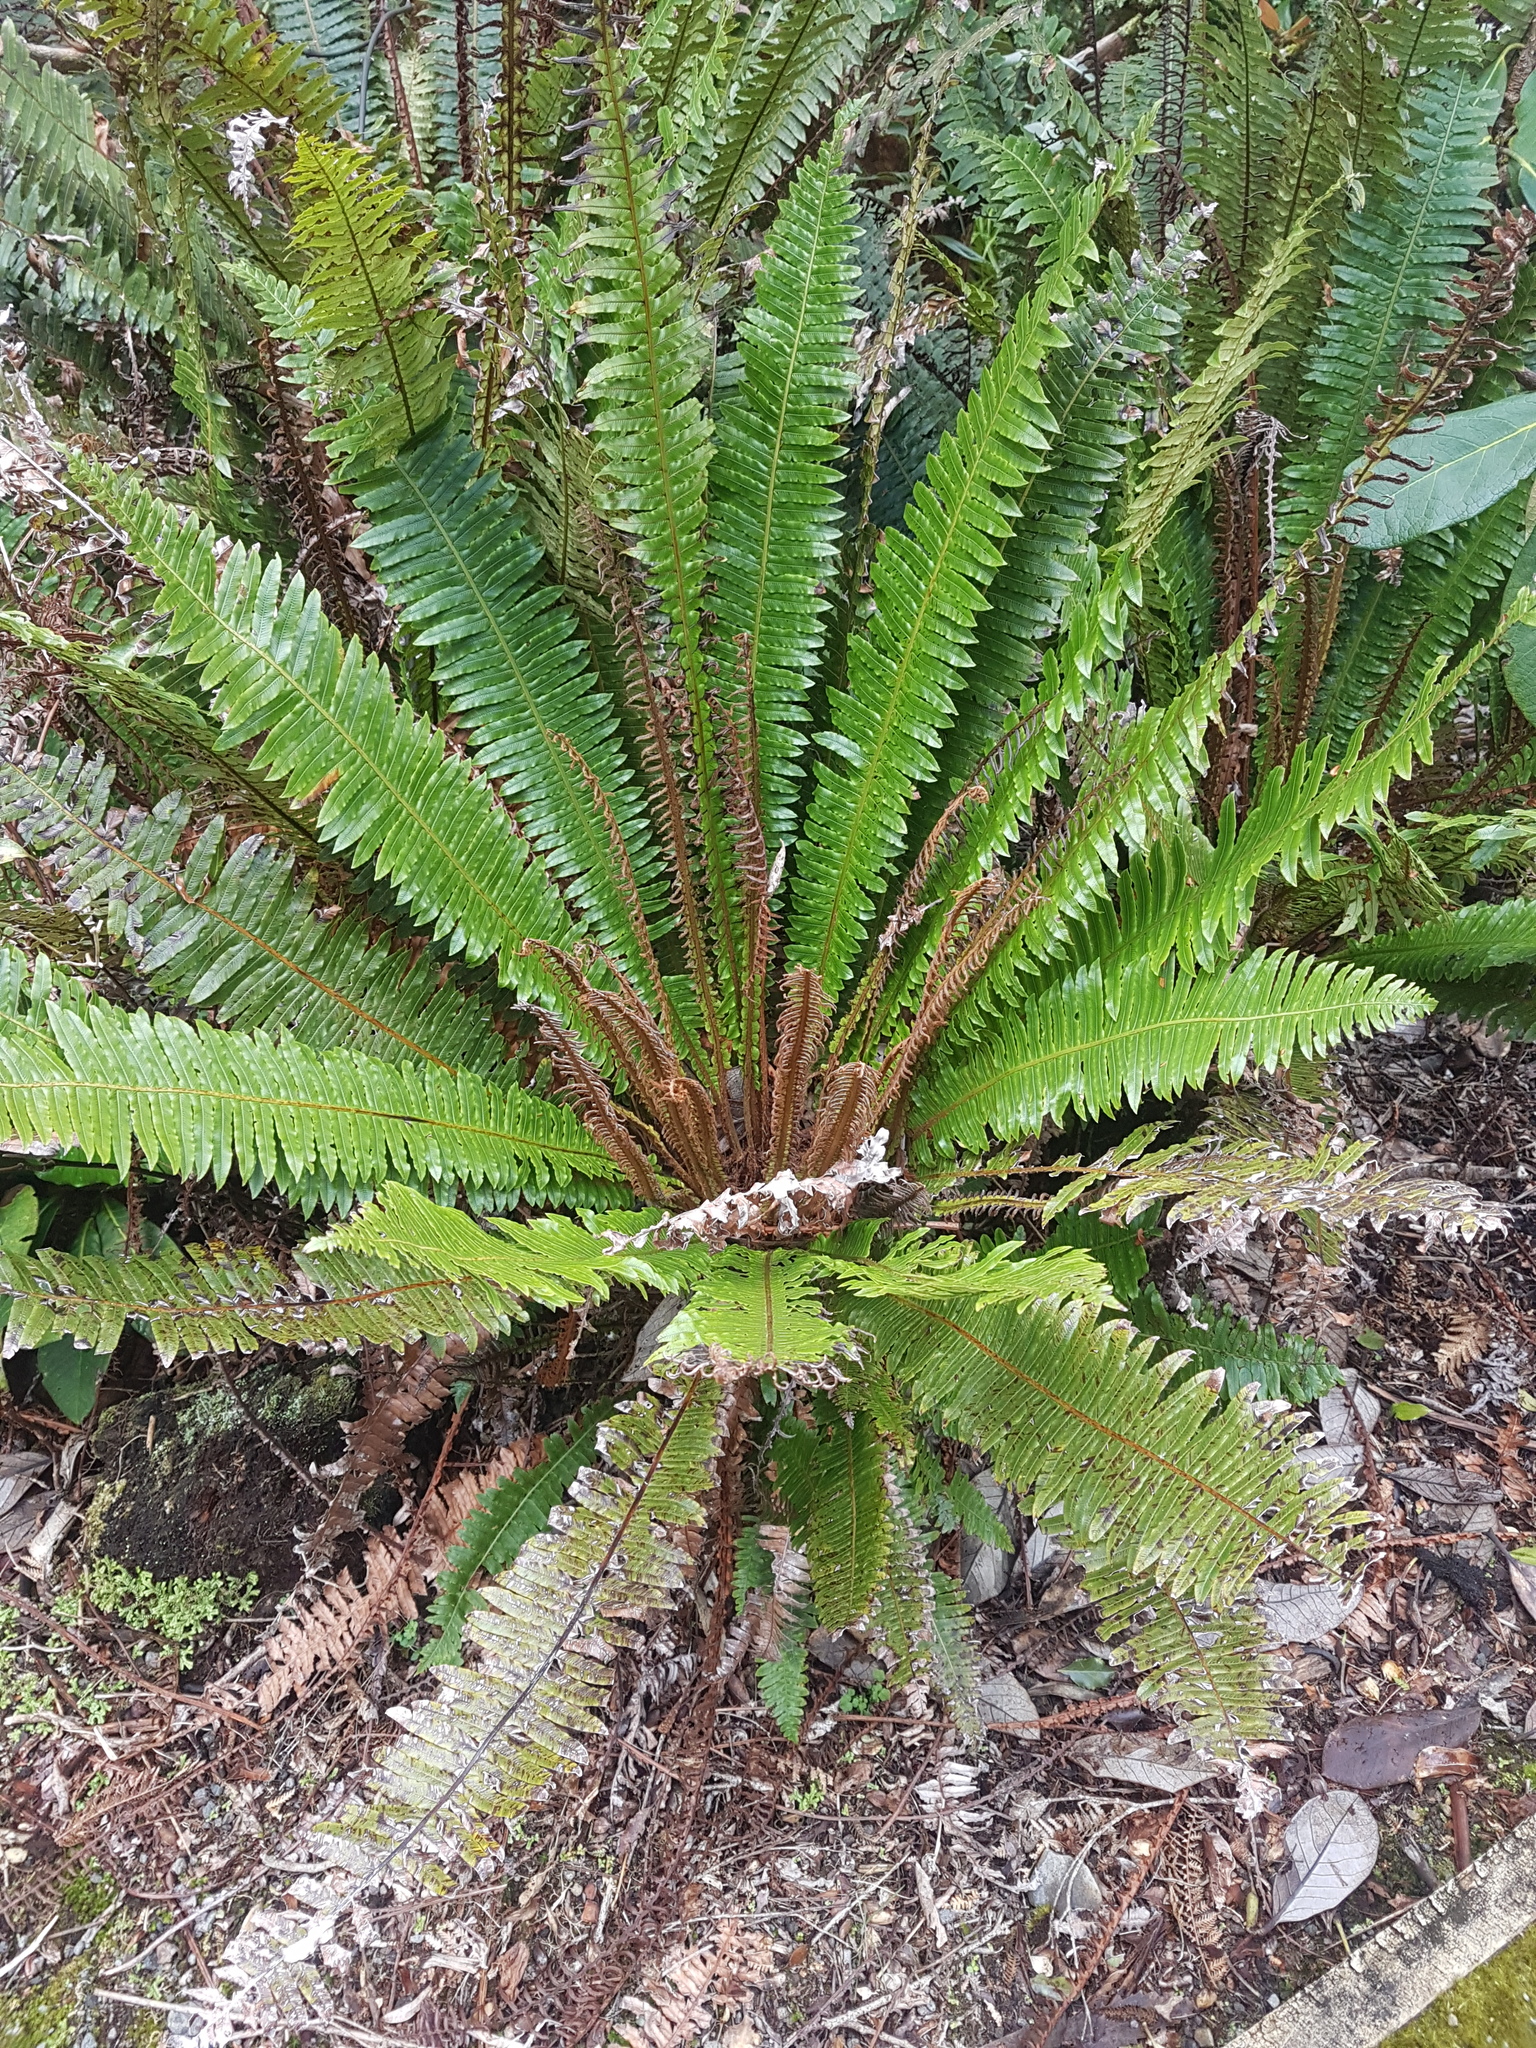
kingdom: Plantae
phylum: Tracheophyta
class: Polypodiopsida
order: Polypodiales
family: Blechnaceae
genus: Lomaria
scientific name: Lomaria discolor
